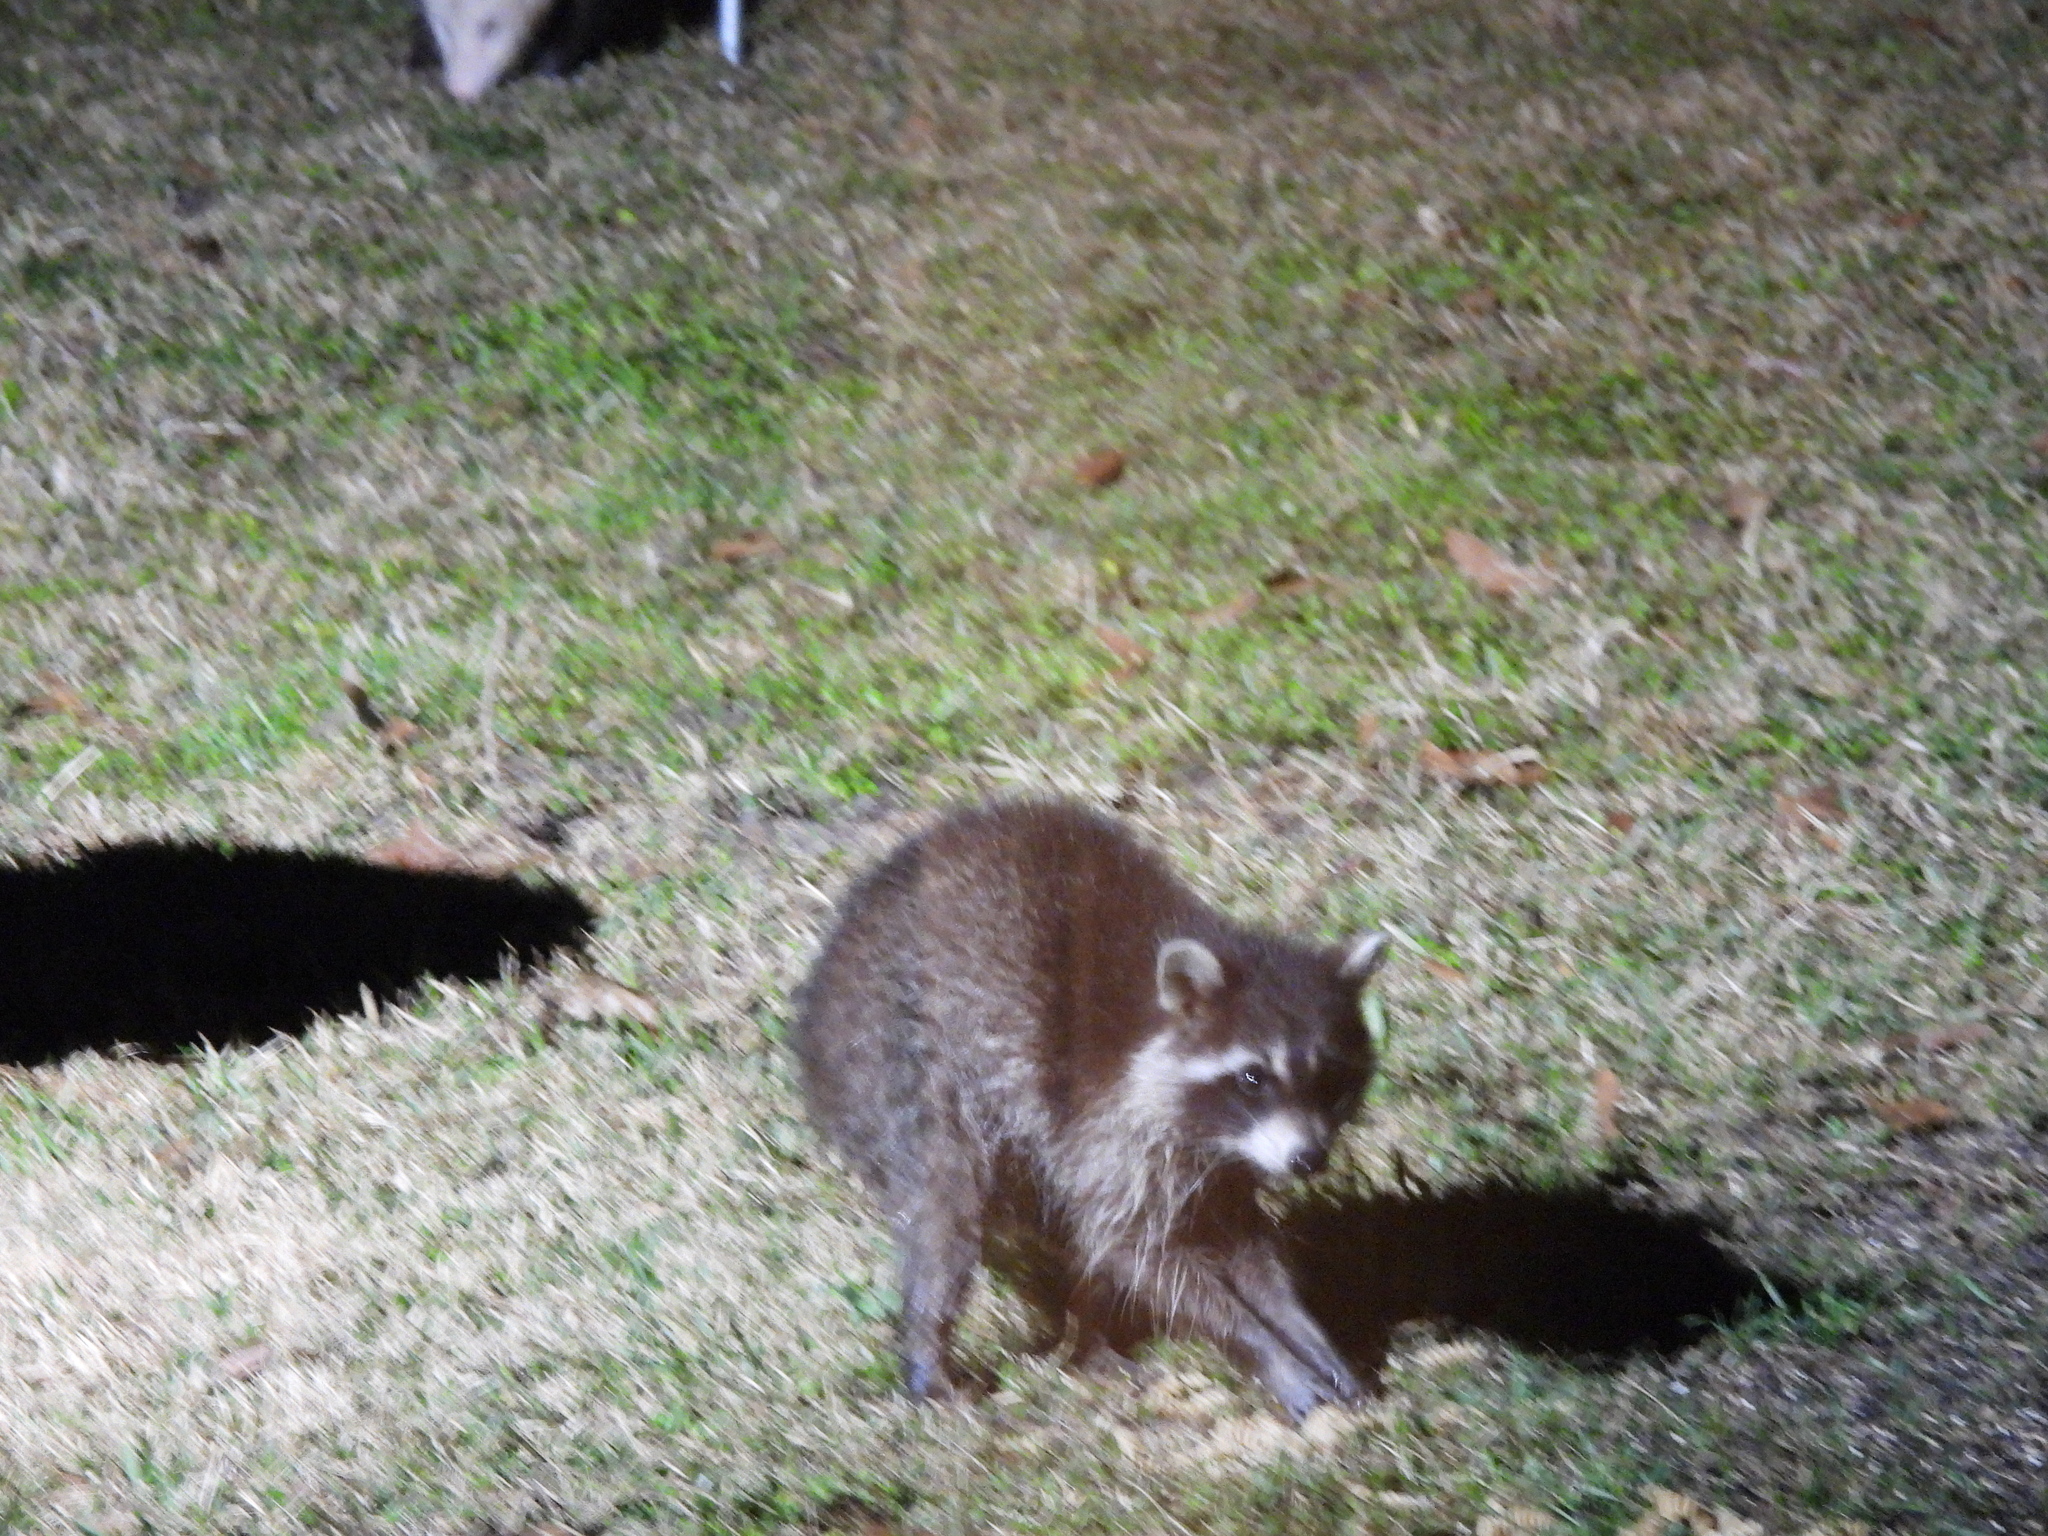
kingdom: Animalia
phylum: Chordata
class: Mammalia
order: Carnivora
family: Procyonidae
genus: Procyon
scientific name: Procyon lotor
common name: Raccoon
